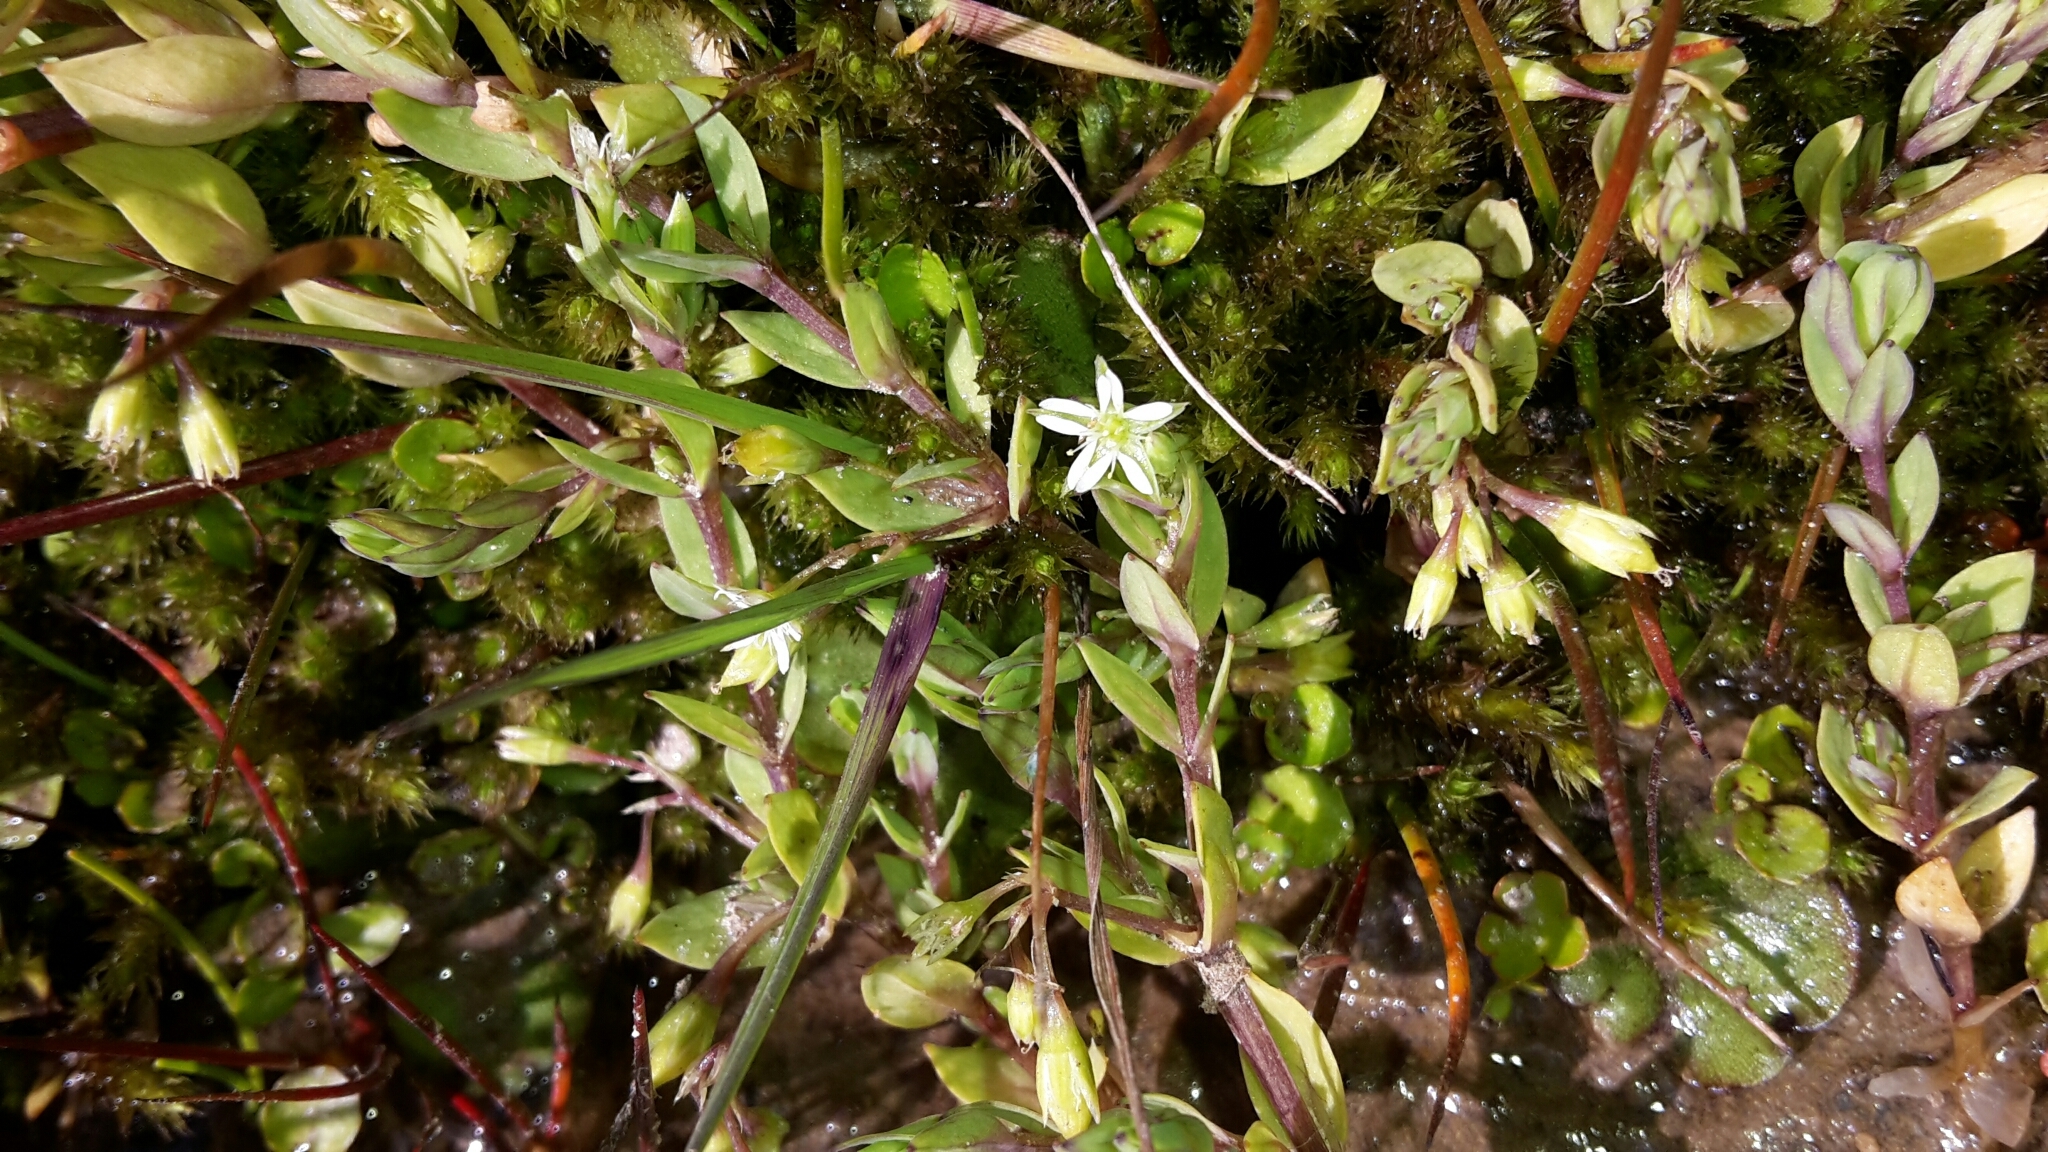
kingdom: Plantae
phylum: Tracheophyta
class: Magnoliopsida
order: Caryophyllales
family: Caryophyllaceae
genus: Stellaria
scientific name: Stellaria alsine
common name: Bog stitchwort
